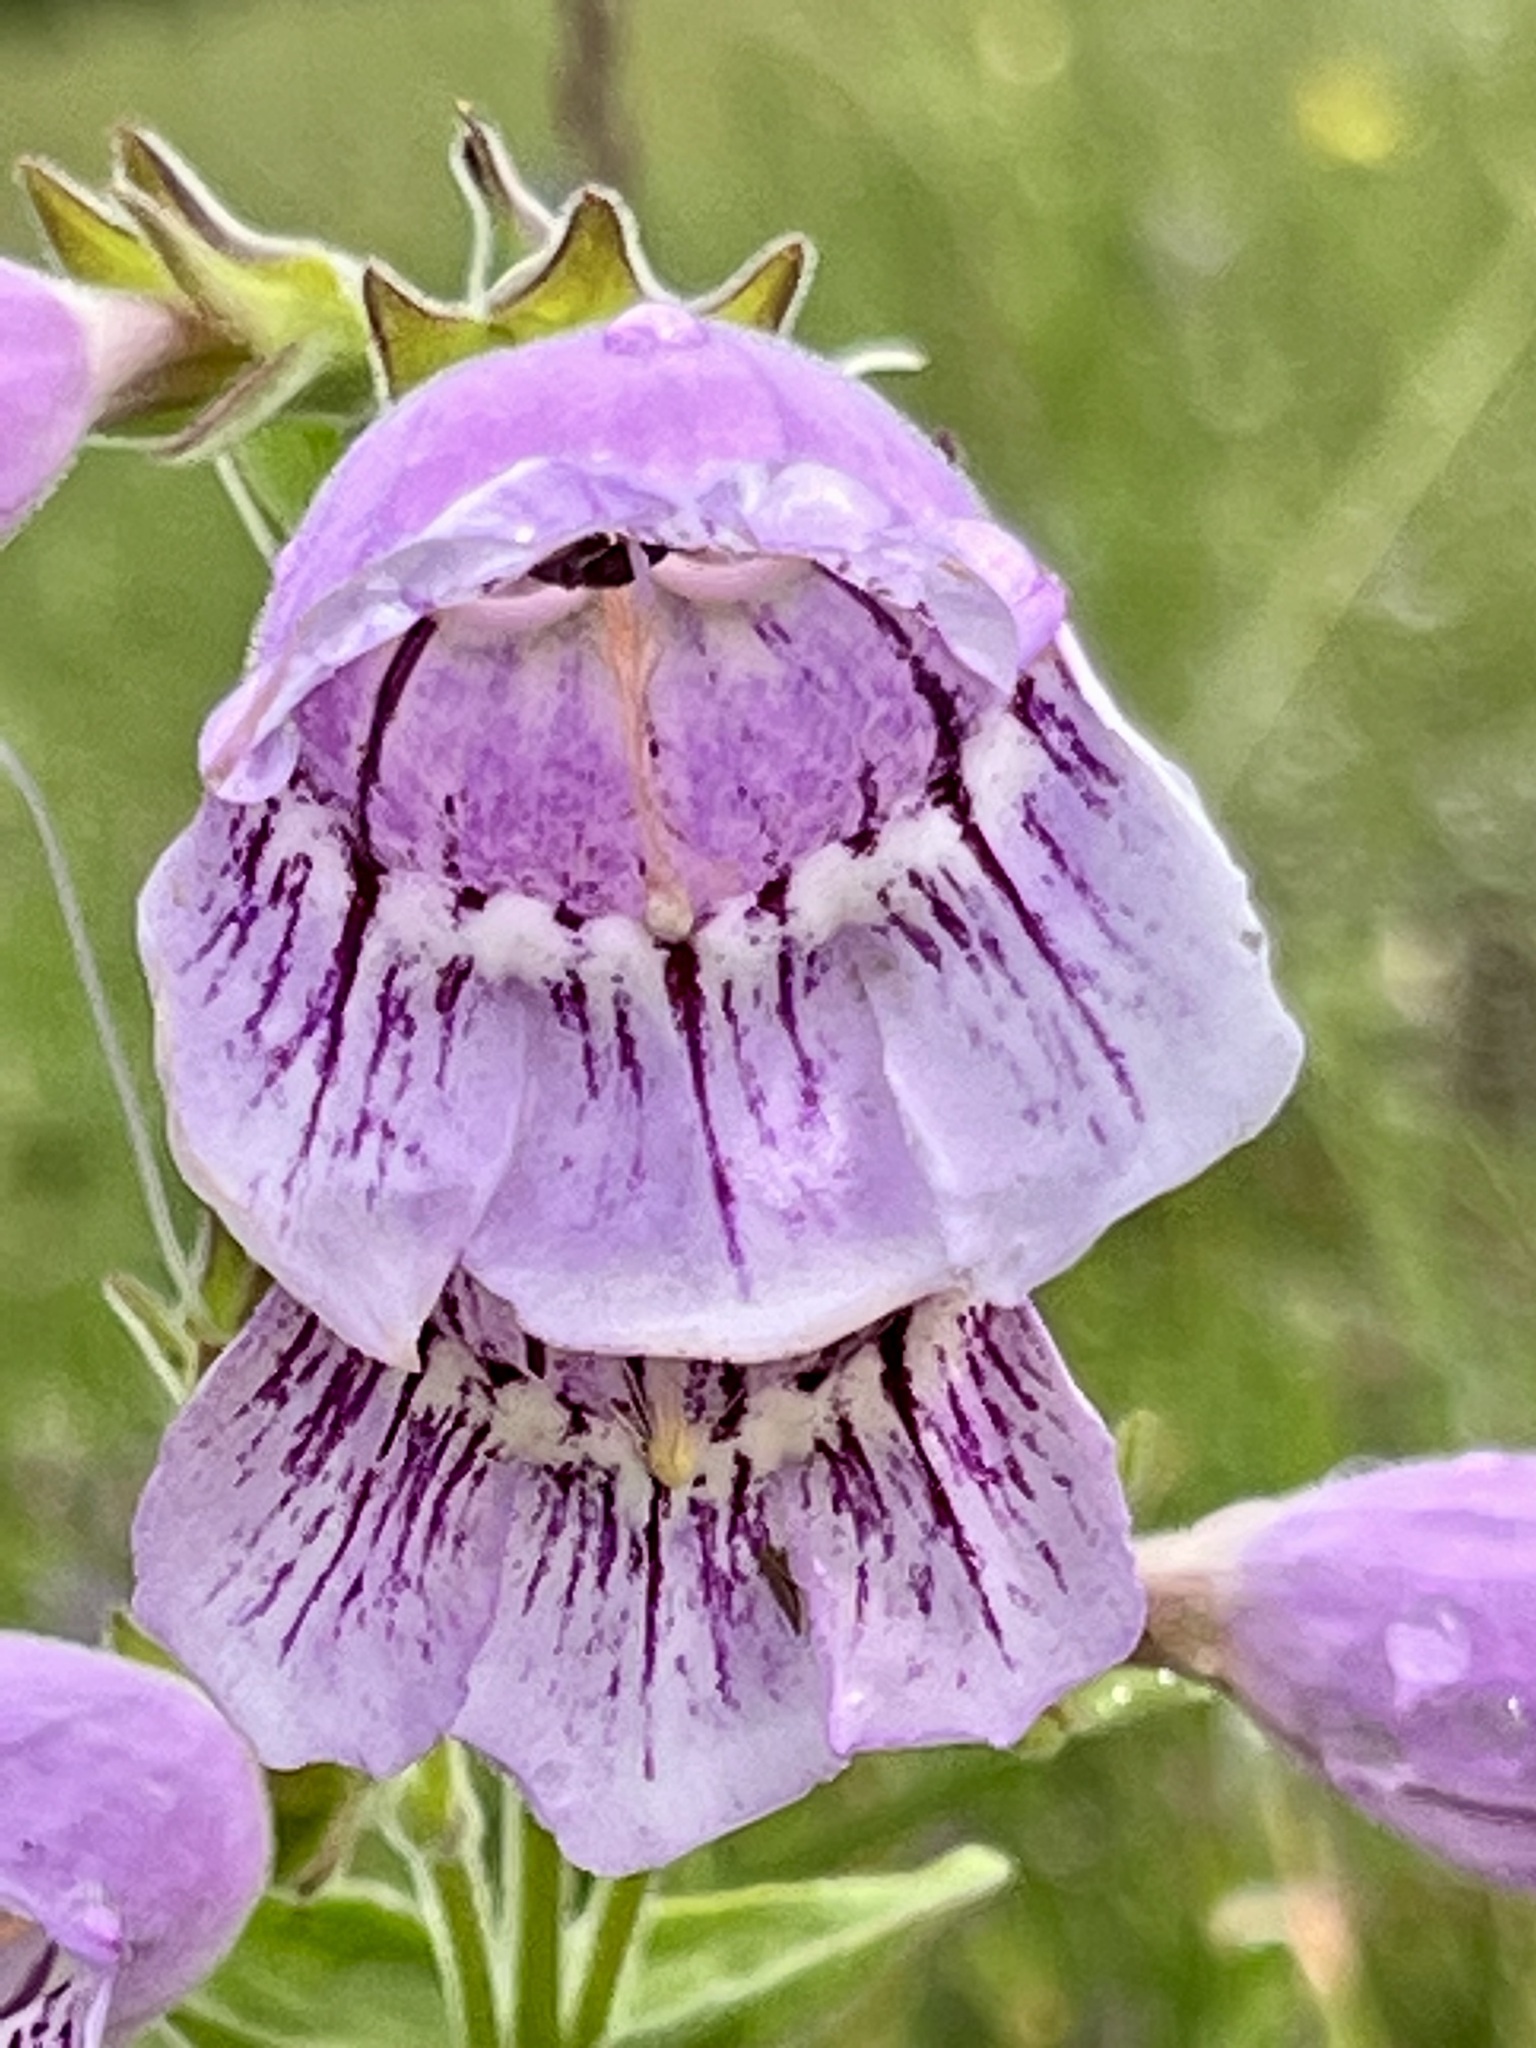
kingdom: Plantae
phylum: Tracheophyta
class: Magnoliopsida
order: Lamiales
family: Plantaginaceae
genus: Penstemon
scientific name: Penstemon cobaea
